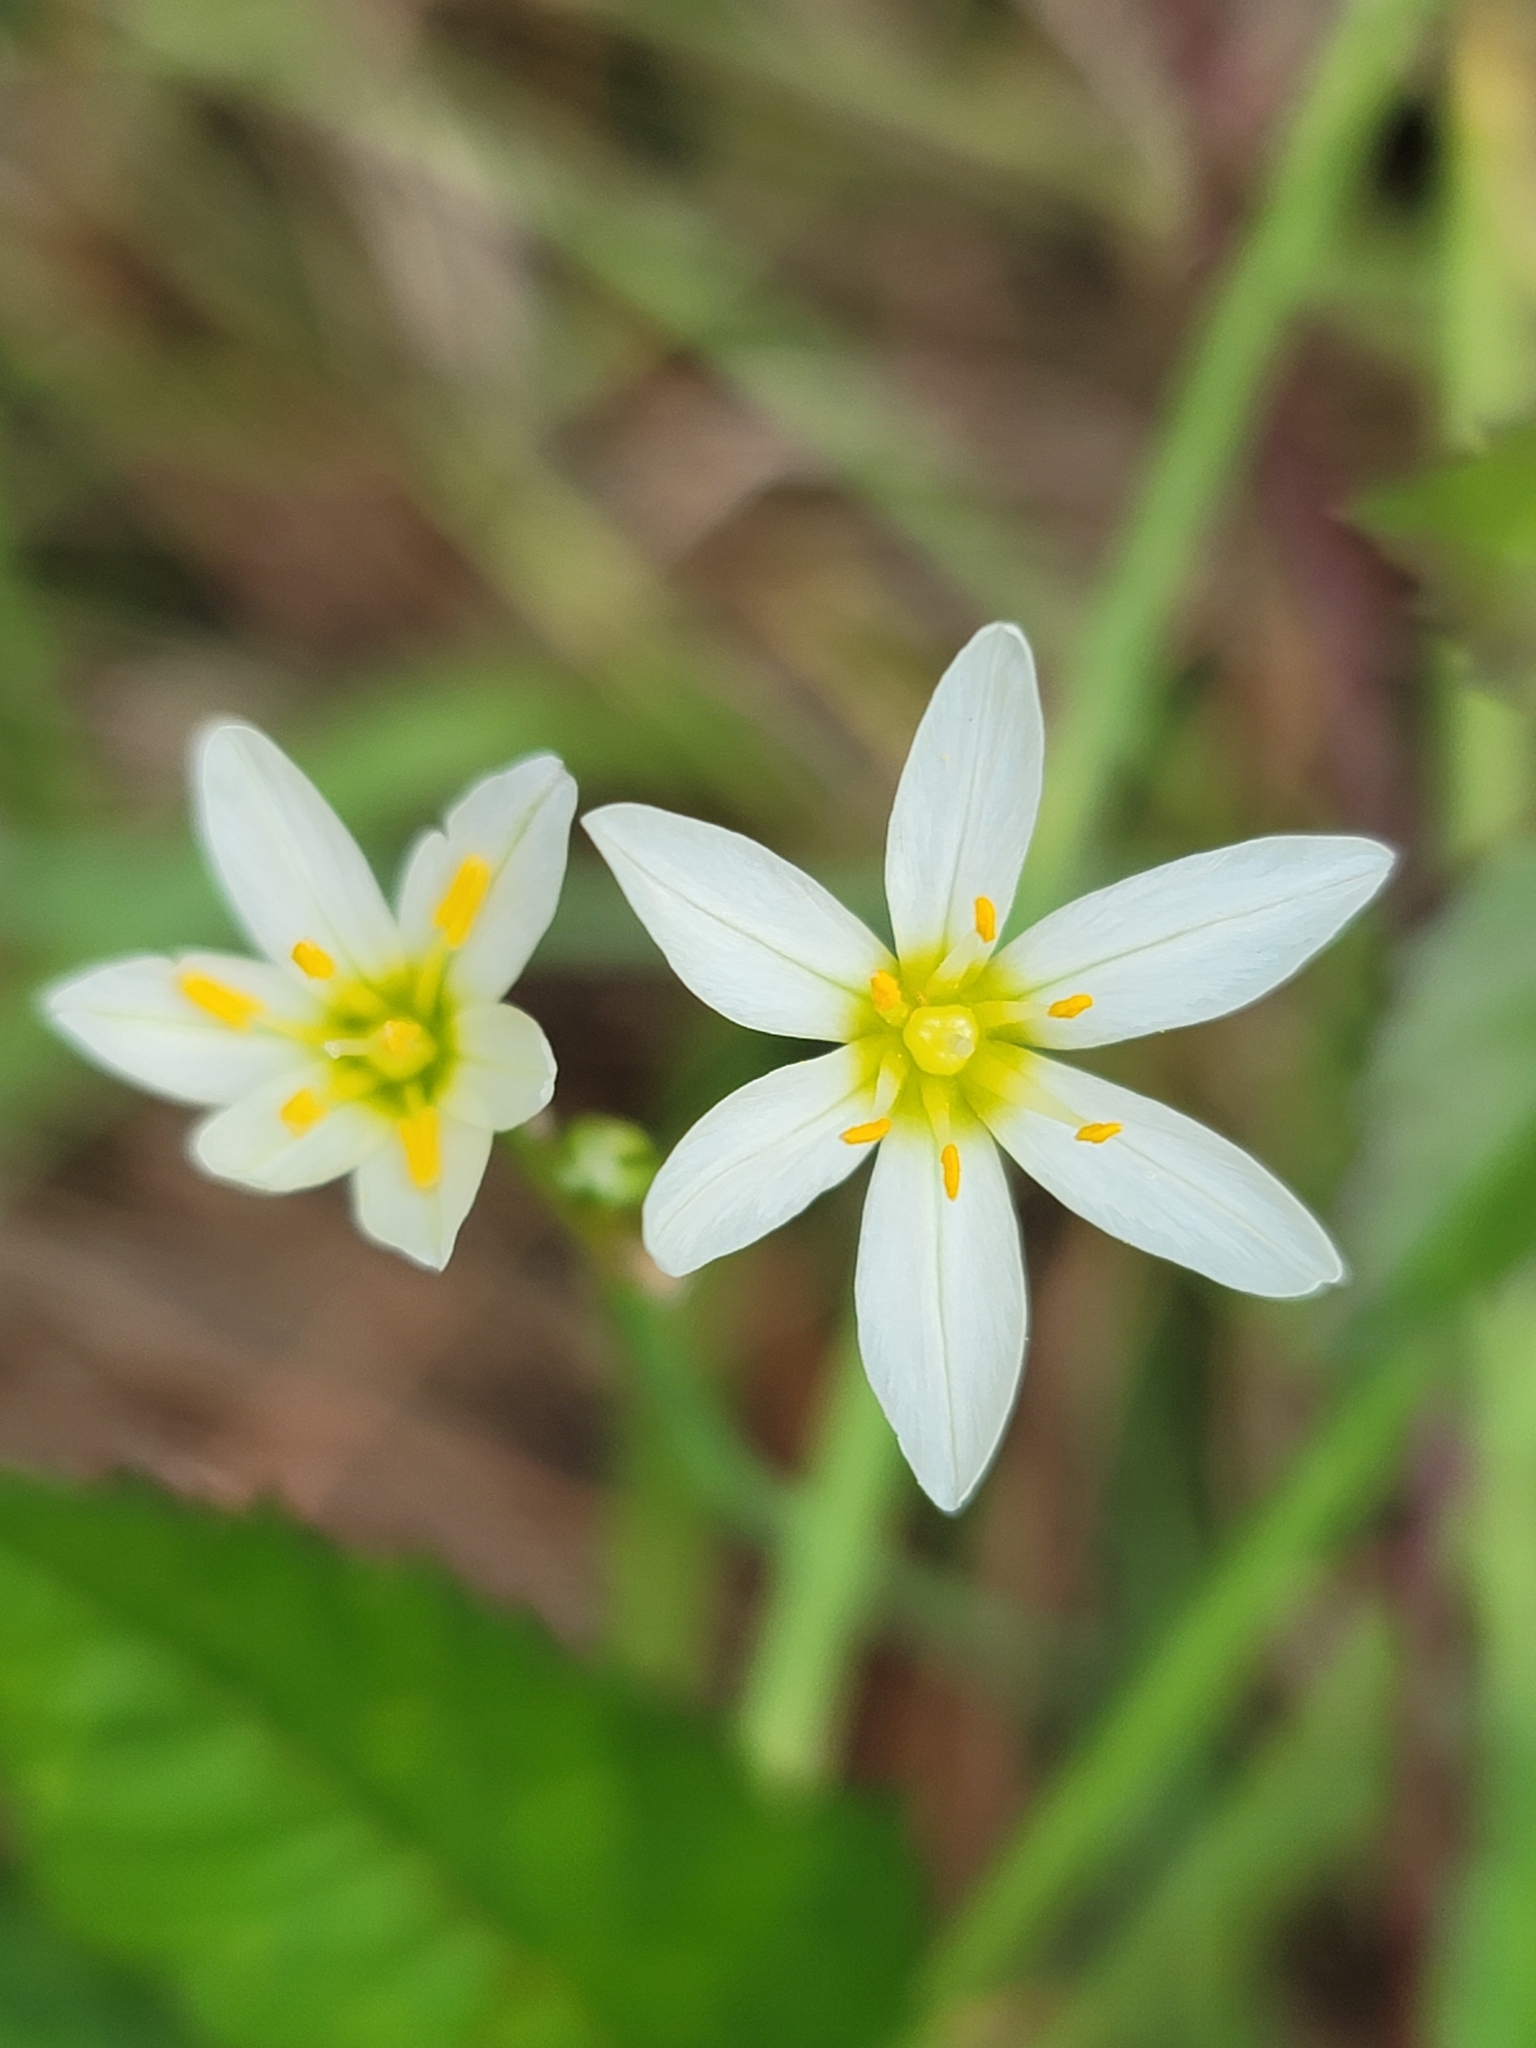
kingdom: Plantae
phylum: Tracheophyta
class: Liliopsida
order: Asparagales
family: Amaryllidaceae
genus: Nothoscordum
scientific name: Nothoscordum bivalve
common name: Crow-poison
